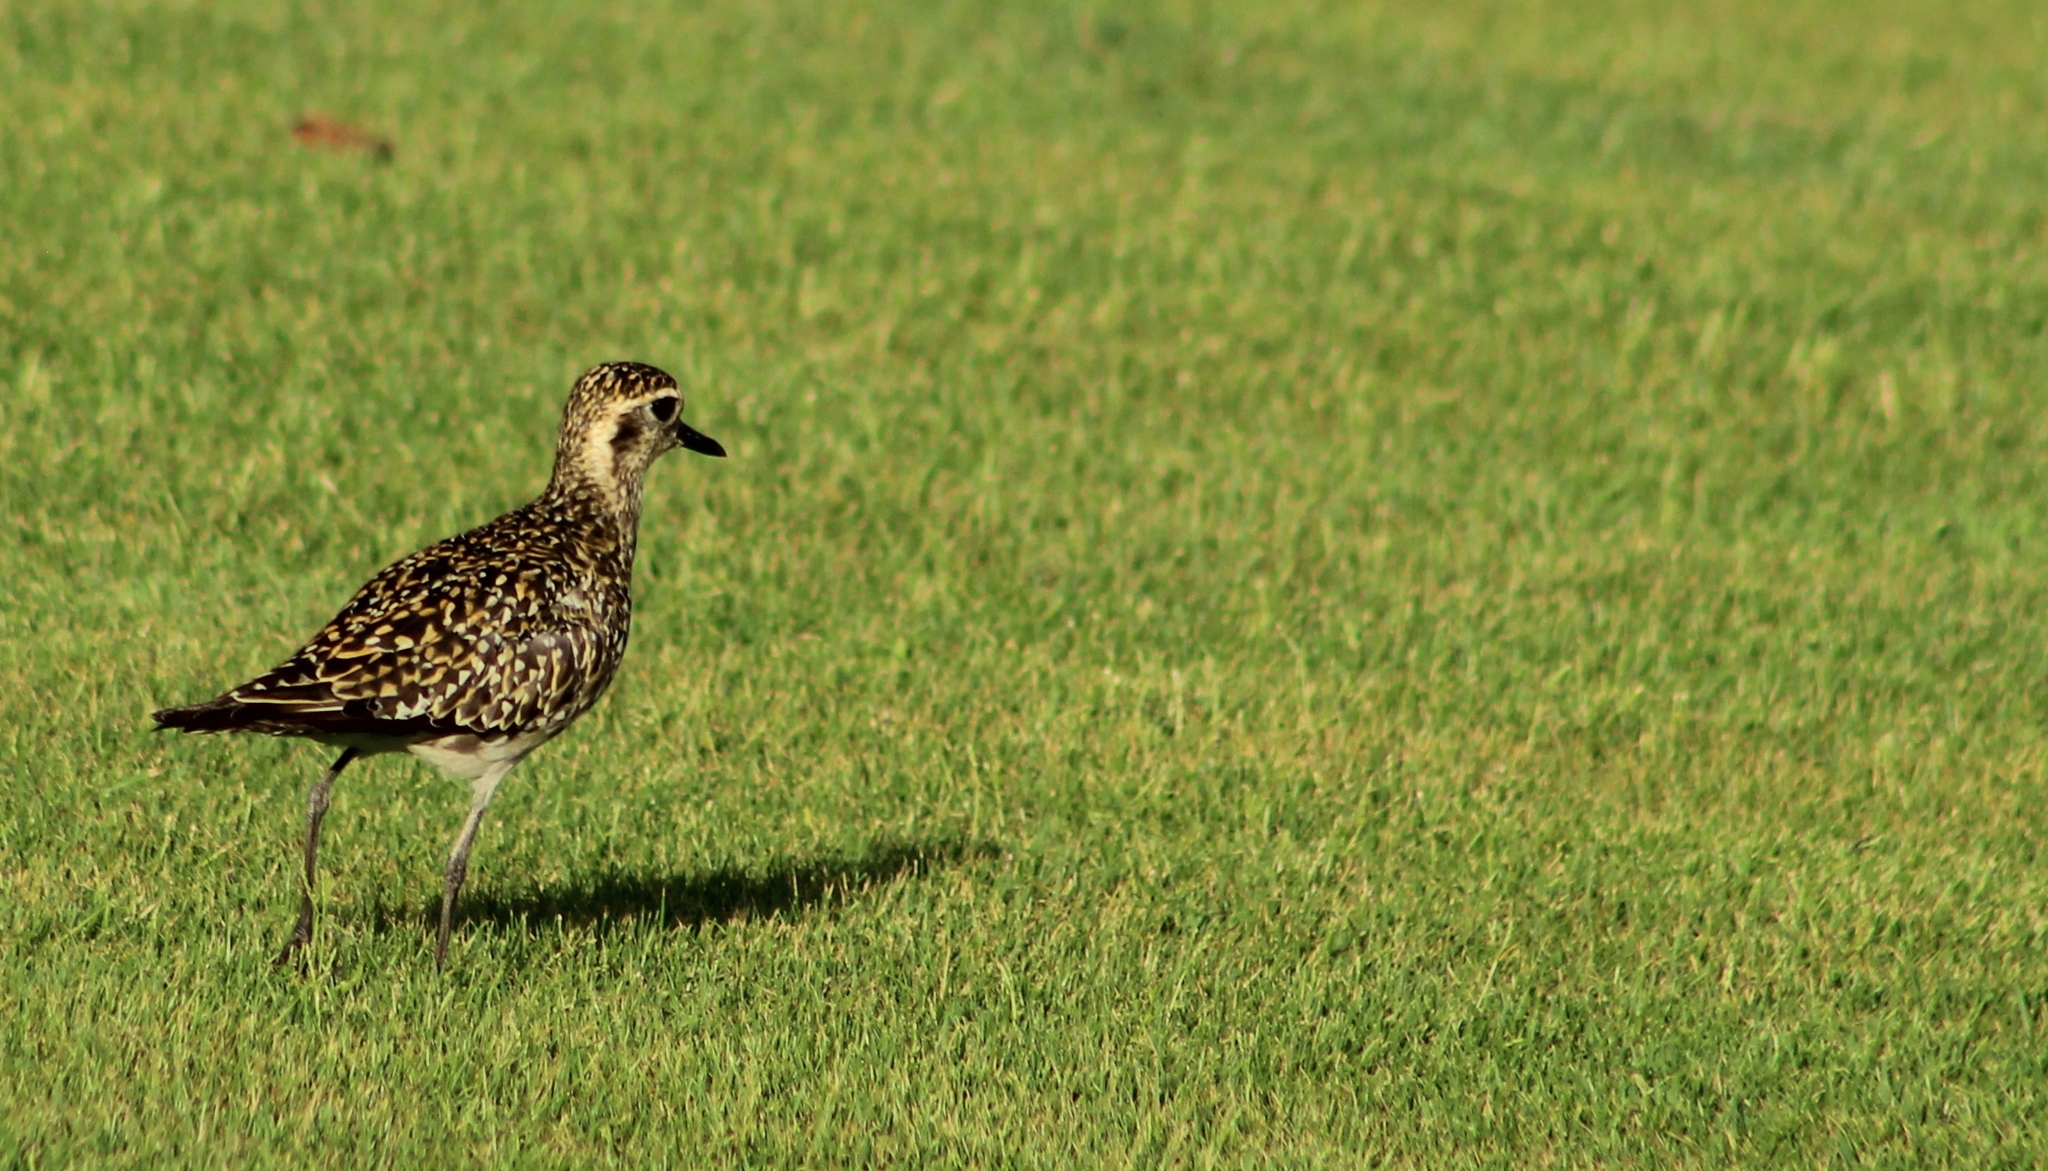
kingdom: Animalia
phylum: Chordata
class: Aves
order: Charadriiformes
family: Charadriidae
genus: Pluvialis
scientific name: Pluvialis fulva
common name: Pacific golden plover
